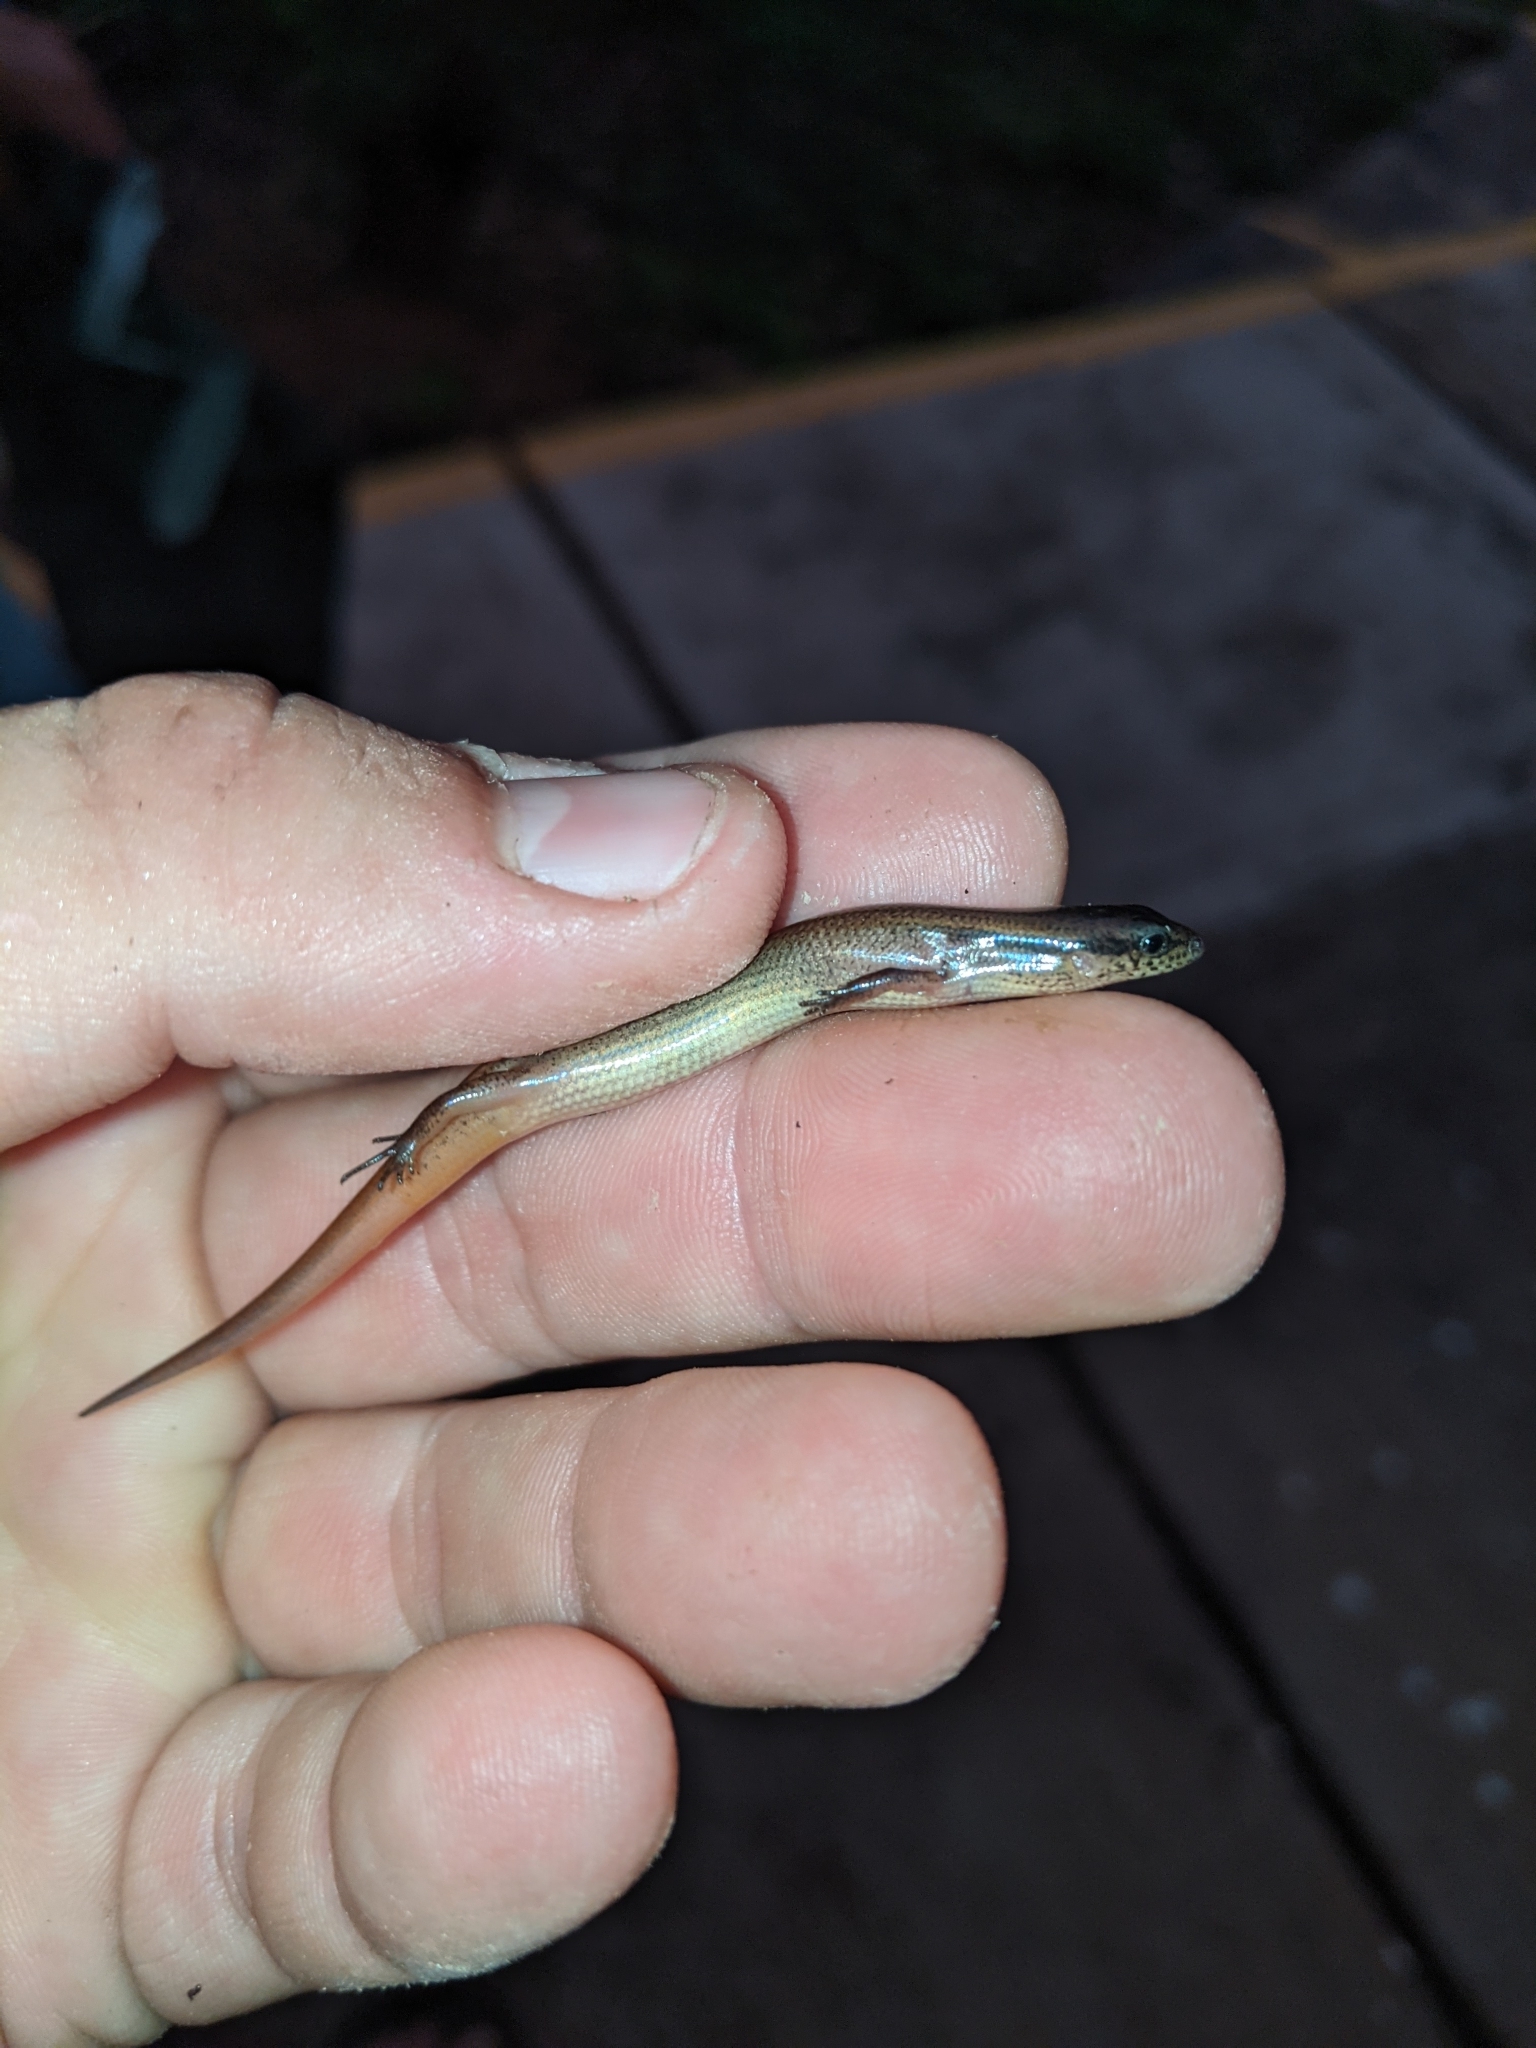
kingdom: Animalia
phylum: Chordata
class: Squamata
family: Scincidae
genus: Scincella
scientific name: Scincella assata
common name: Ground skink
